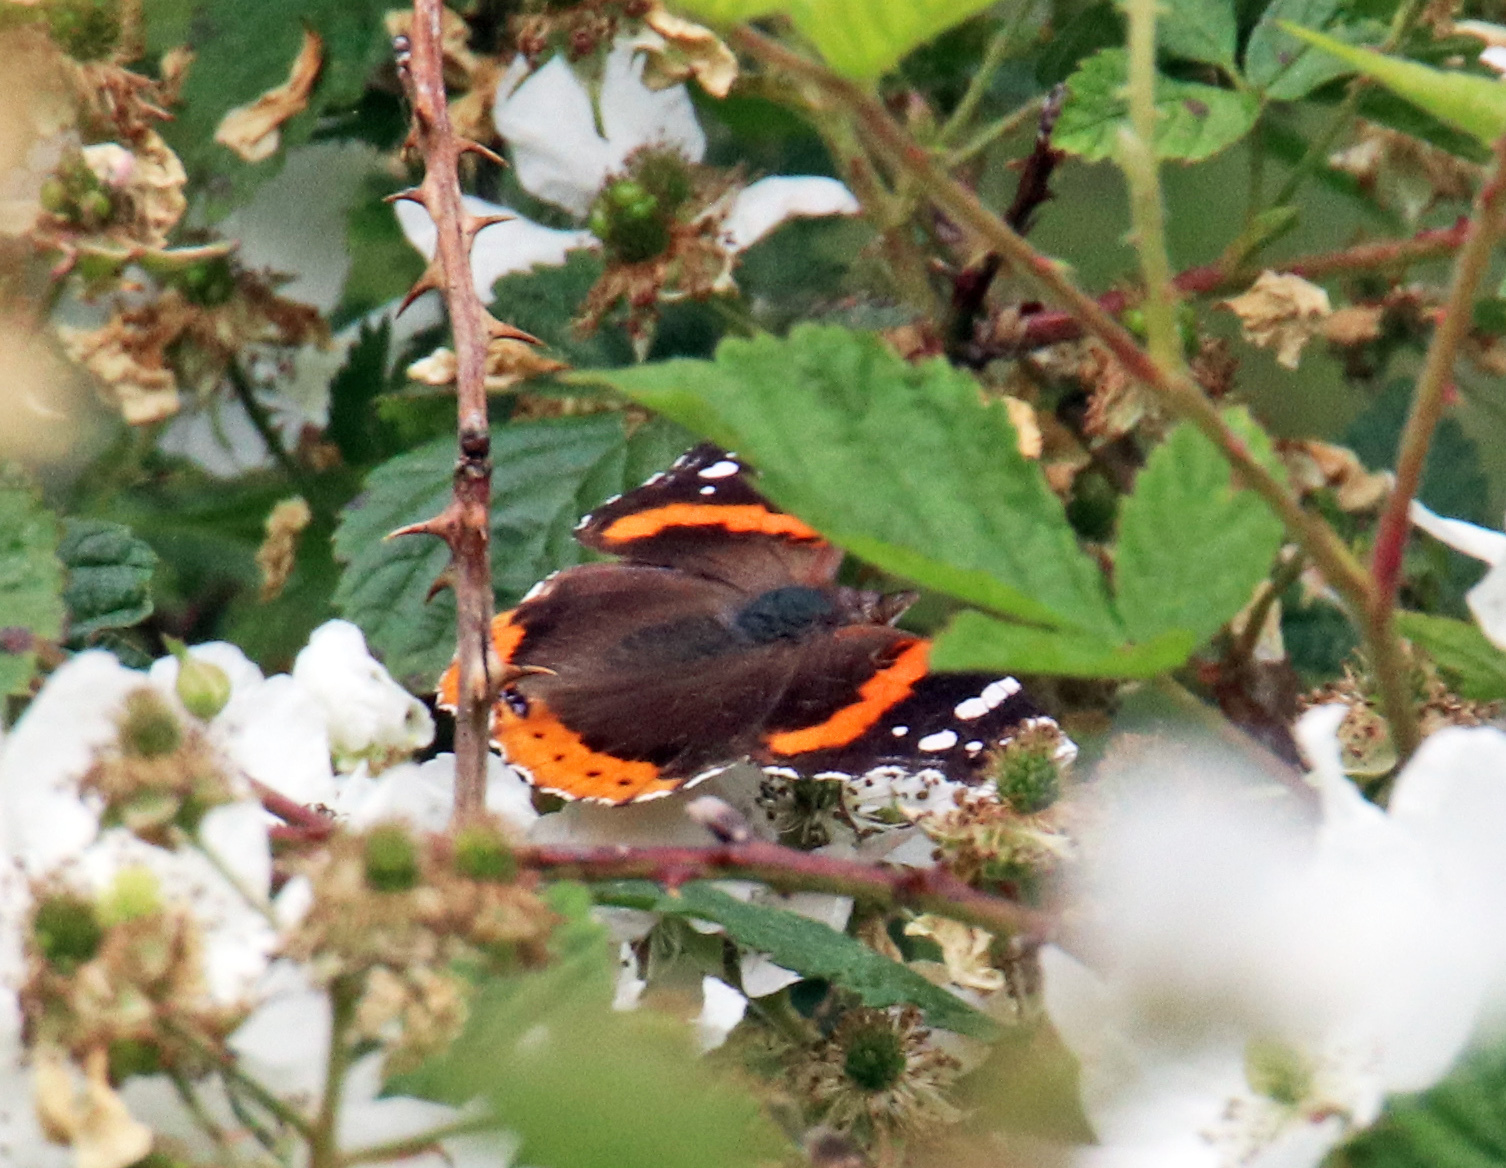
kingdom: Animalia
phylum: Arthropoda
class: Insecta
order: Lepidoptera
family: Nymphalidae
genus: Vanessa
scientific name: Vanessa atalanta
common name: Red admiral
